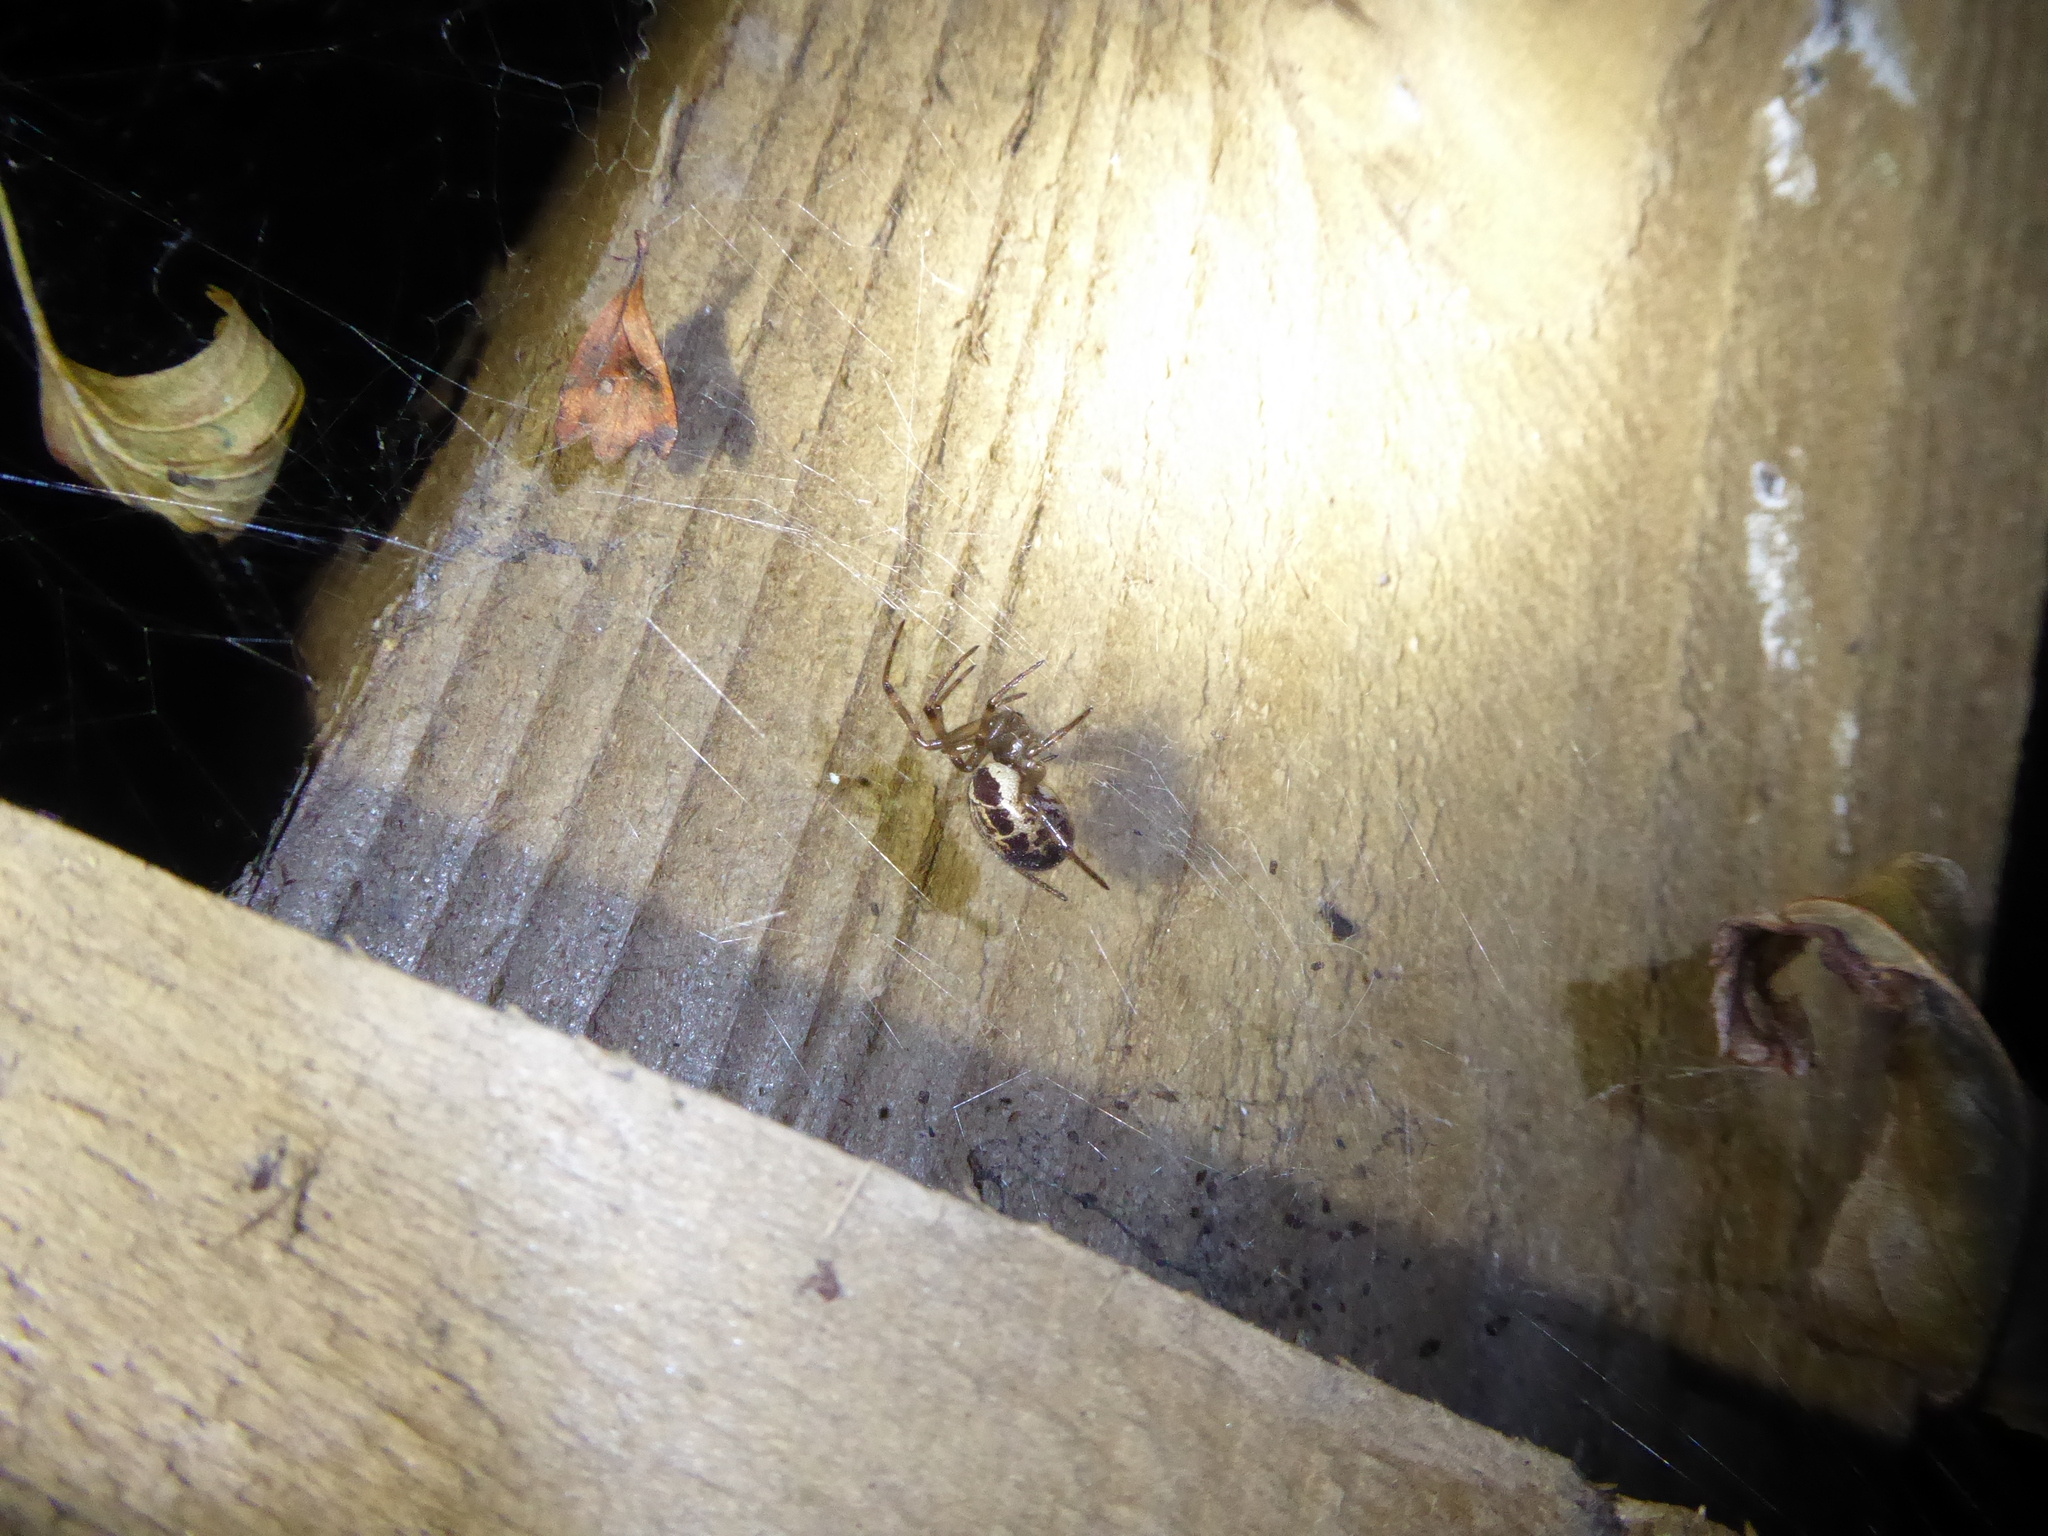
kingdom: Animalia
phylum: Arthropoda
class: Arachnida
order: Araneae
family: Theridiidae
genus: Steatoda
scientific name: Steatoda nobilis
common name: Cobweb weaver
